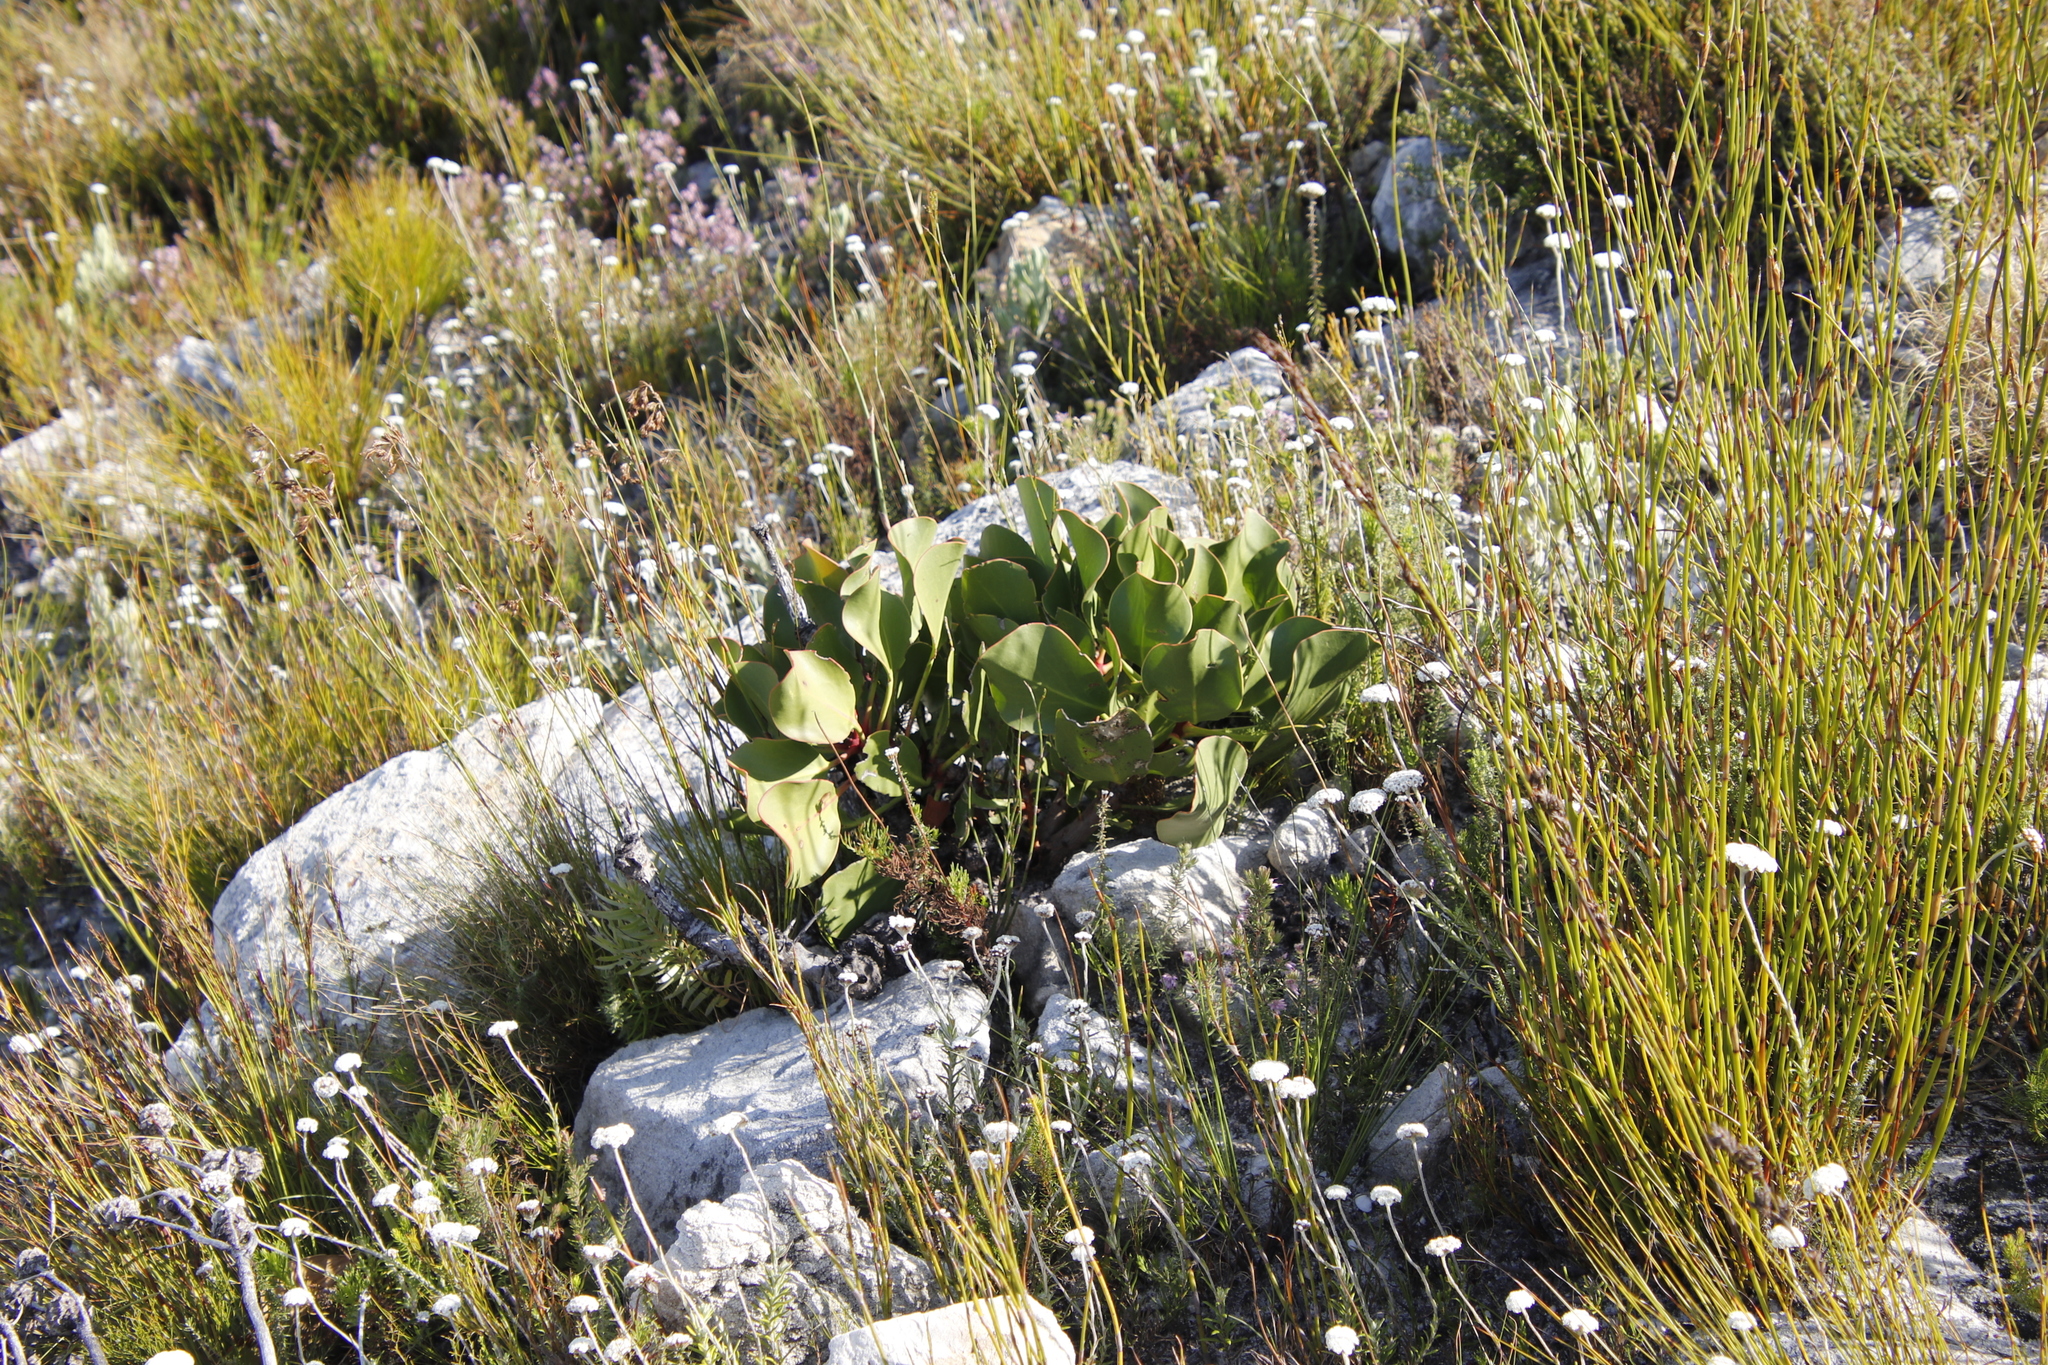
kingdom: Plantae
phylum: Tracheophyta
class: Magnoliopsida
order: Proteales
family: Proteaceae
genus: Protea
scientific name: Protea cynaroides
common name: King protea
